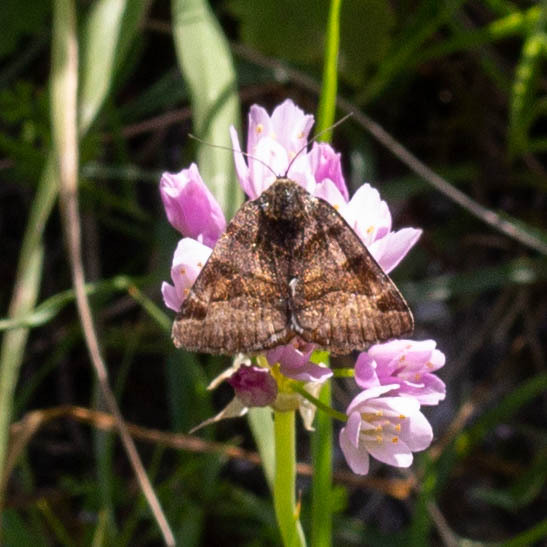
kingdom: Animalia
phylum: Arthropoda
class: Insecta
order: Lepidoptera
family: Erebidae
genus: Euclidia
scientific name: Euclidia glyphica
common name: Burnet companion
